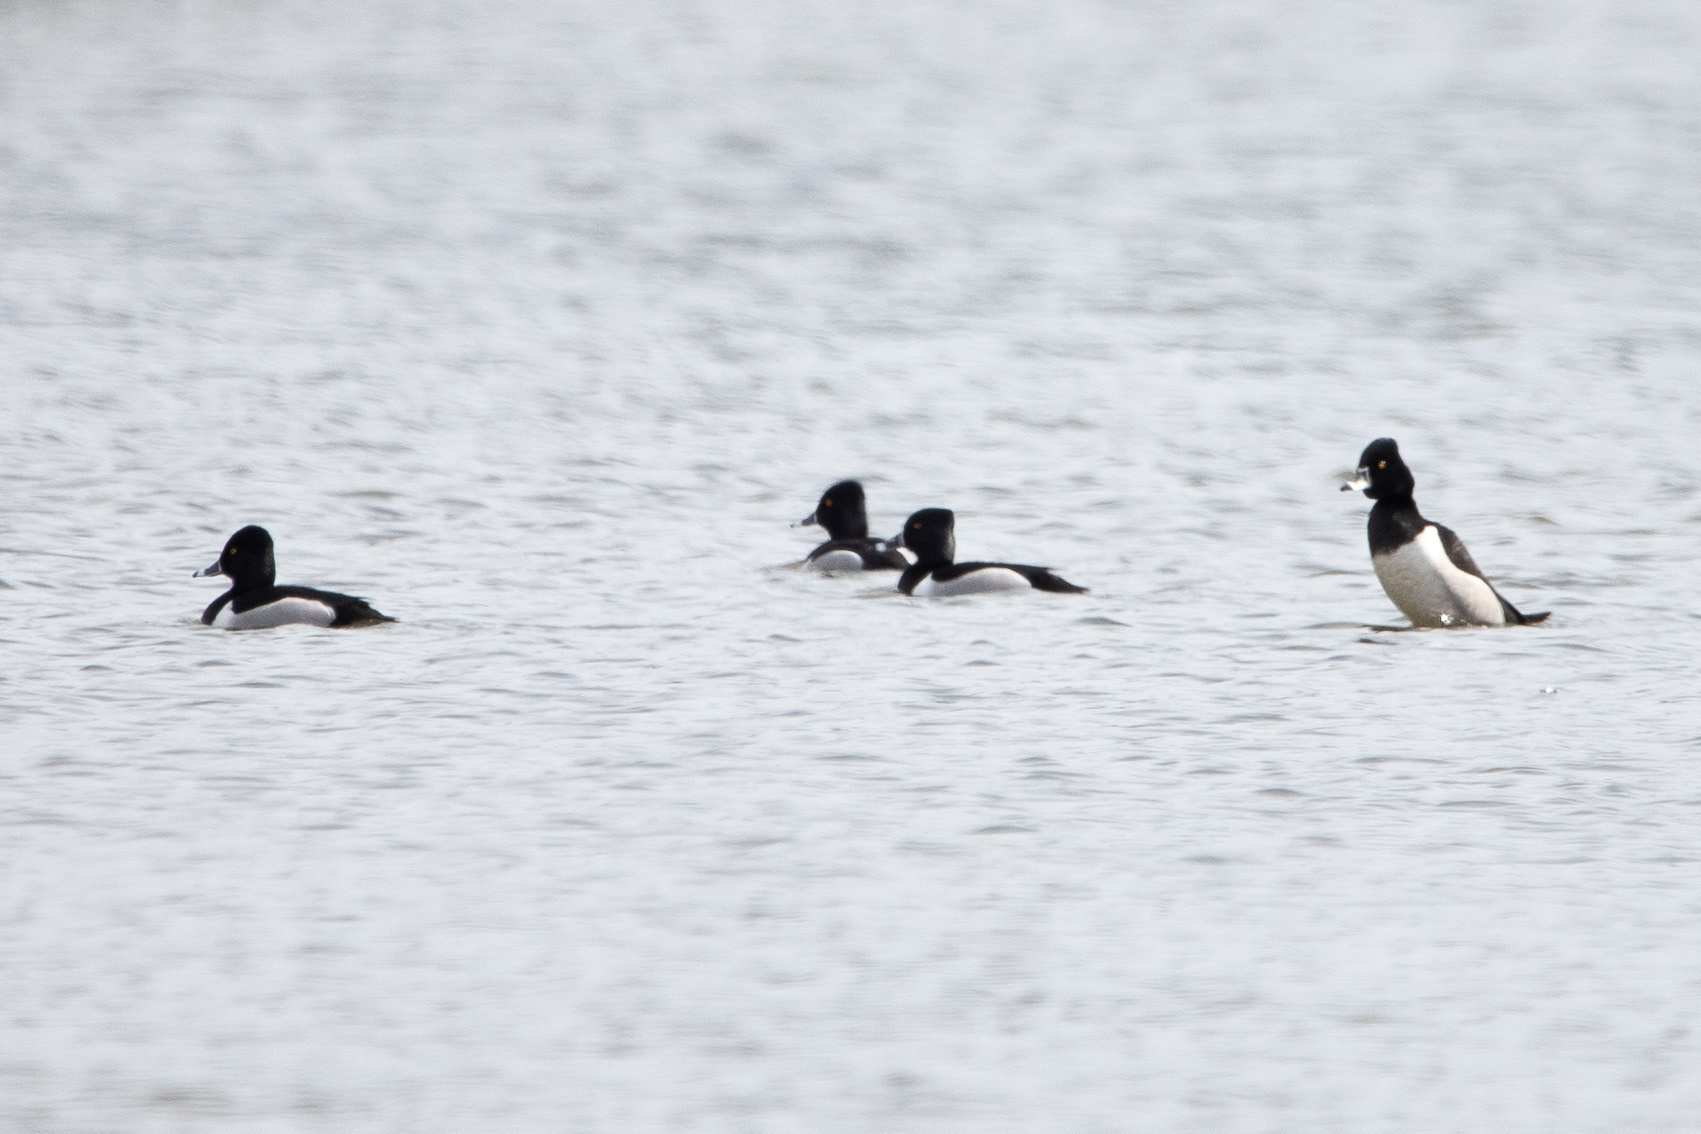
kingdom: Animalia
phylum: Chordata
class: Aves
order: Anseriformes
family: Anatidae
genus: Aythya
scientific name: Aythya collaris
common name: Ring-necked duck
